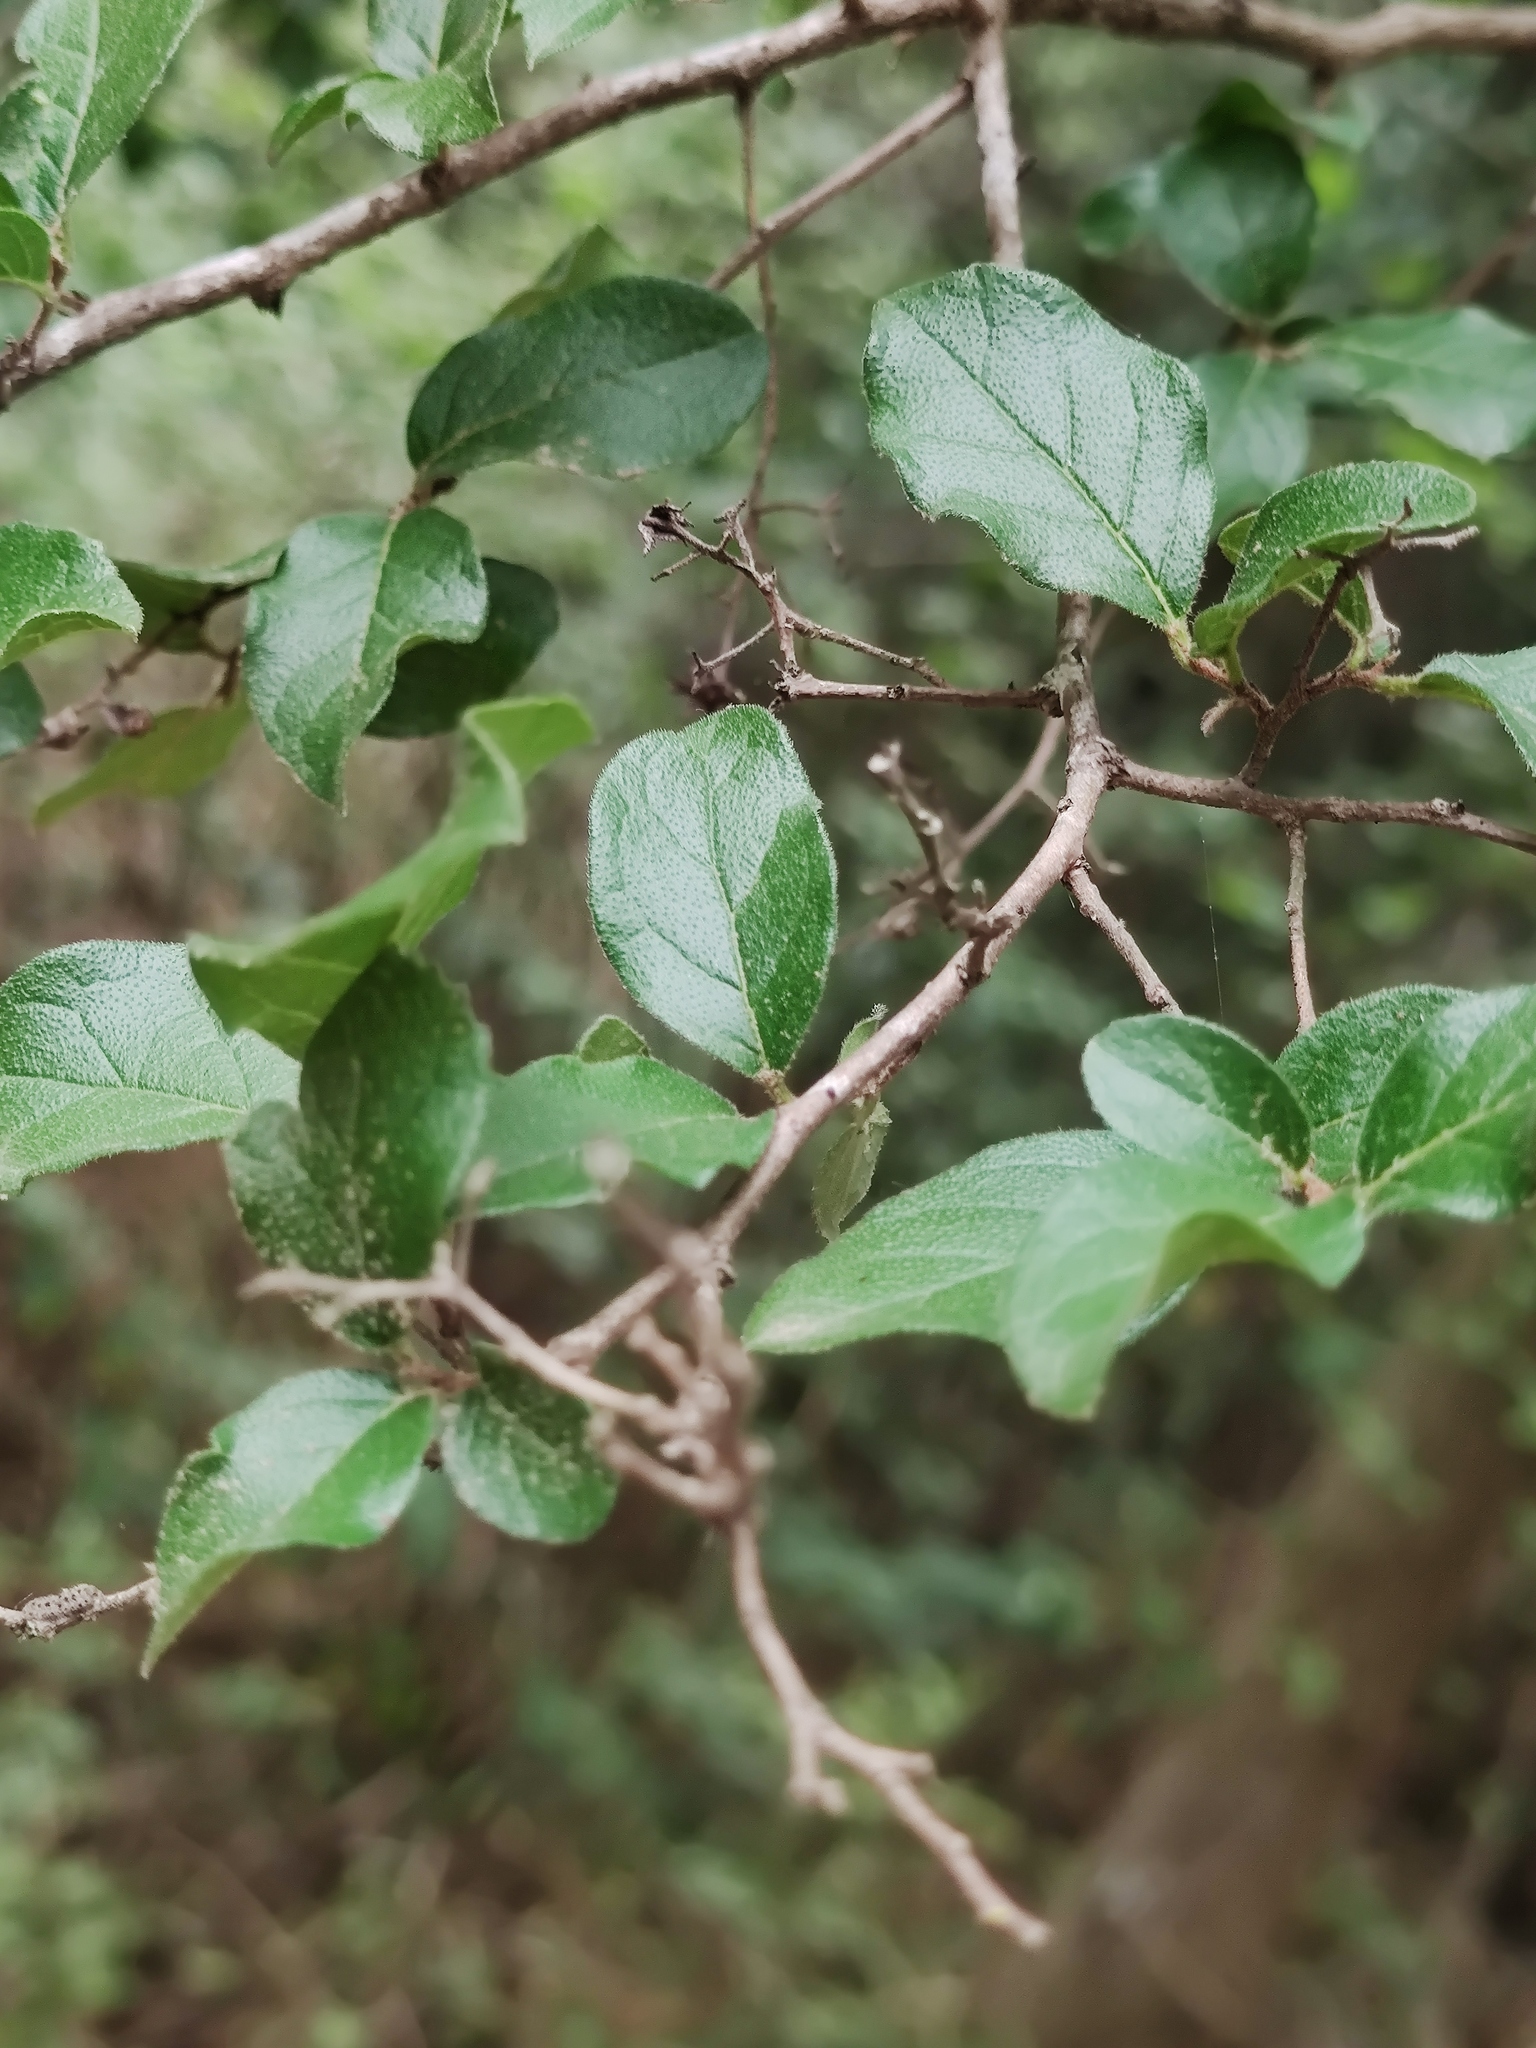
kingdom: Plantae
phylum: Tracheophyta
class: Magnoliopsida
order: Boraginales
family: Ehretiaceae
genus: Ehretia
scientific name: Ehretia anacua
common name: Sugarberry
